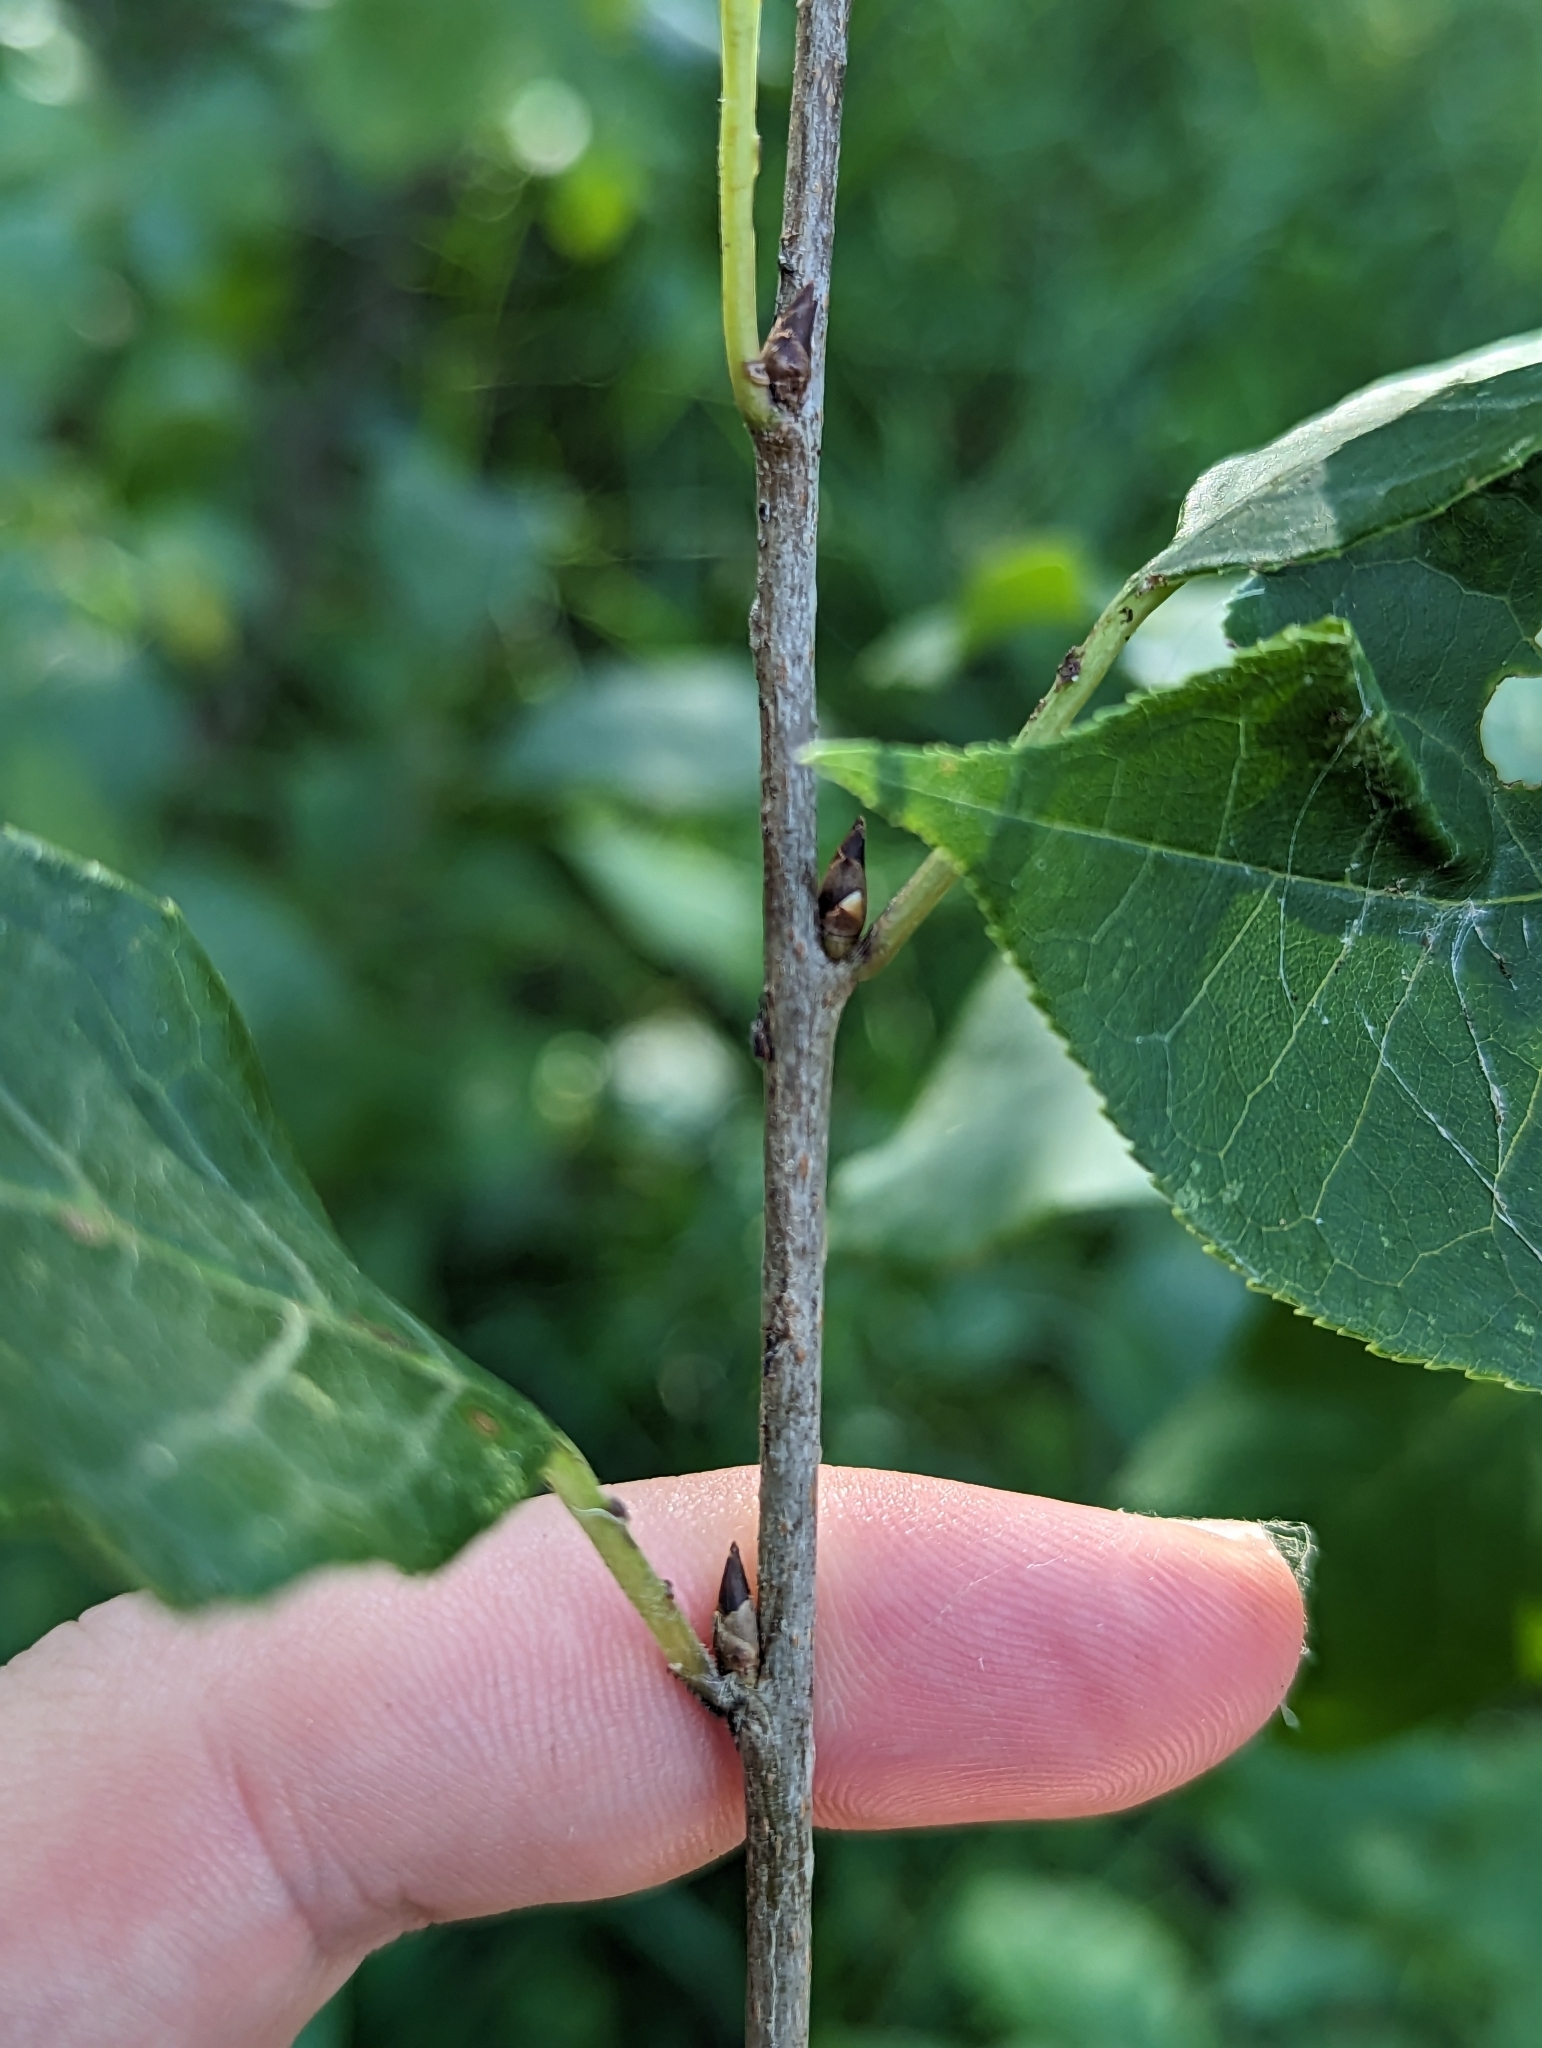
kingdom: Plantae
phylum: Tracheophyta
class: Magnoliopsida
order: Rosales
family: Rosaceae
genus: Prunus
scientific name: Prunus virginiana
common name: Chokecherry
